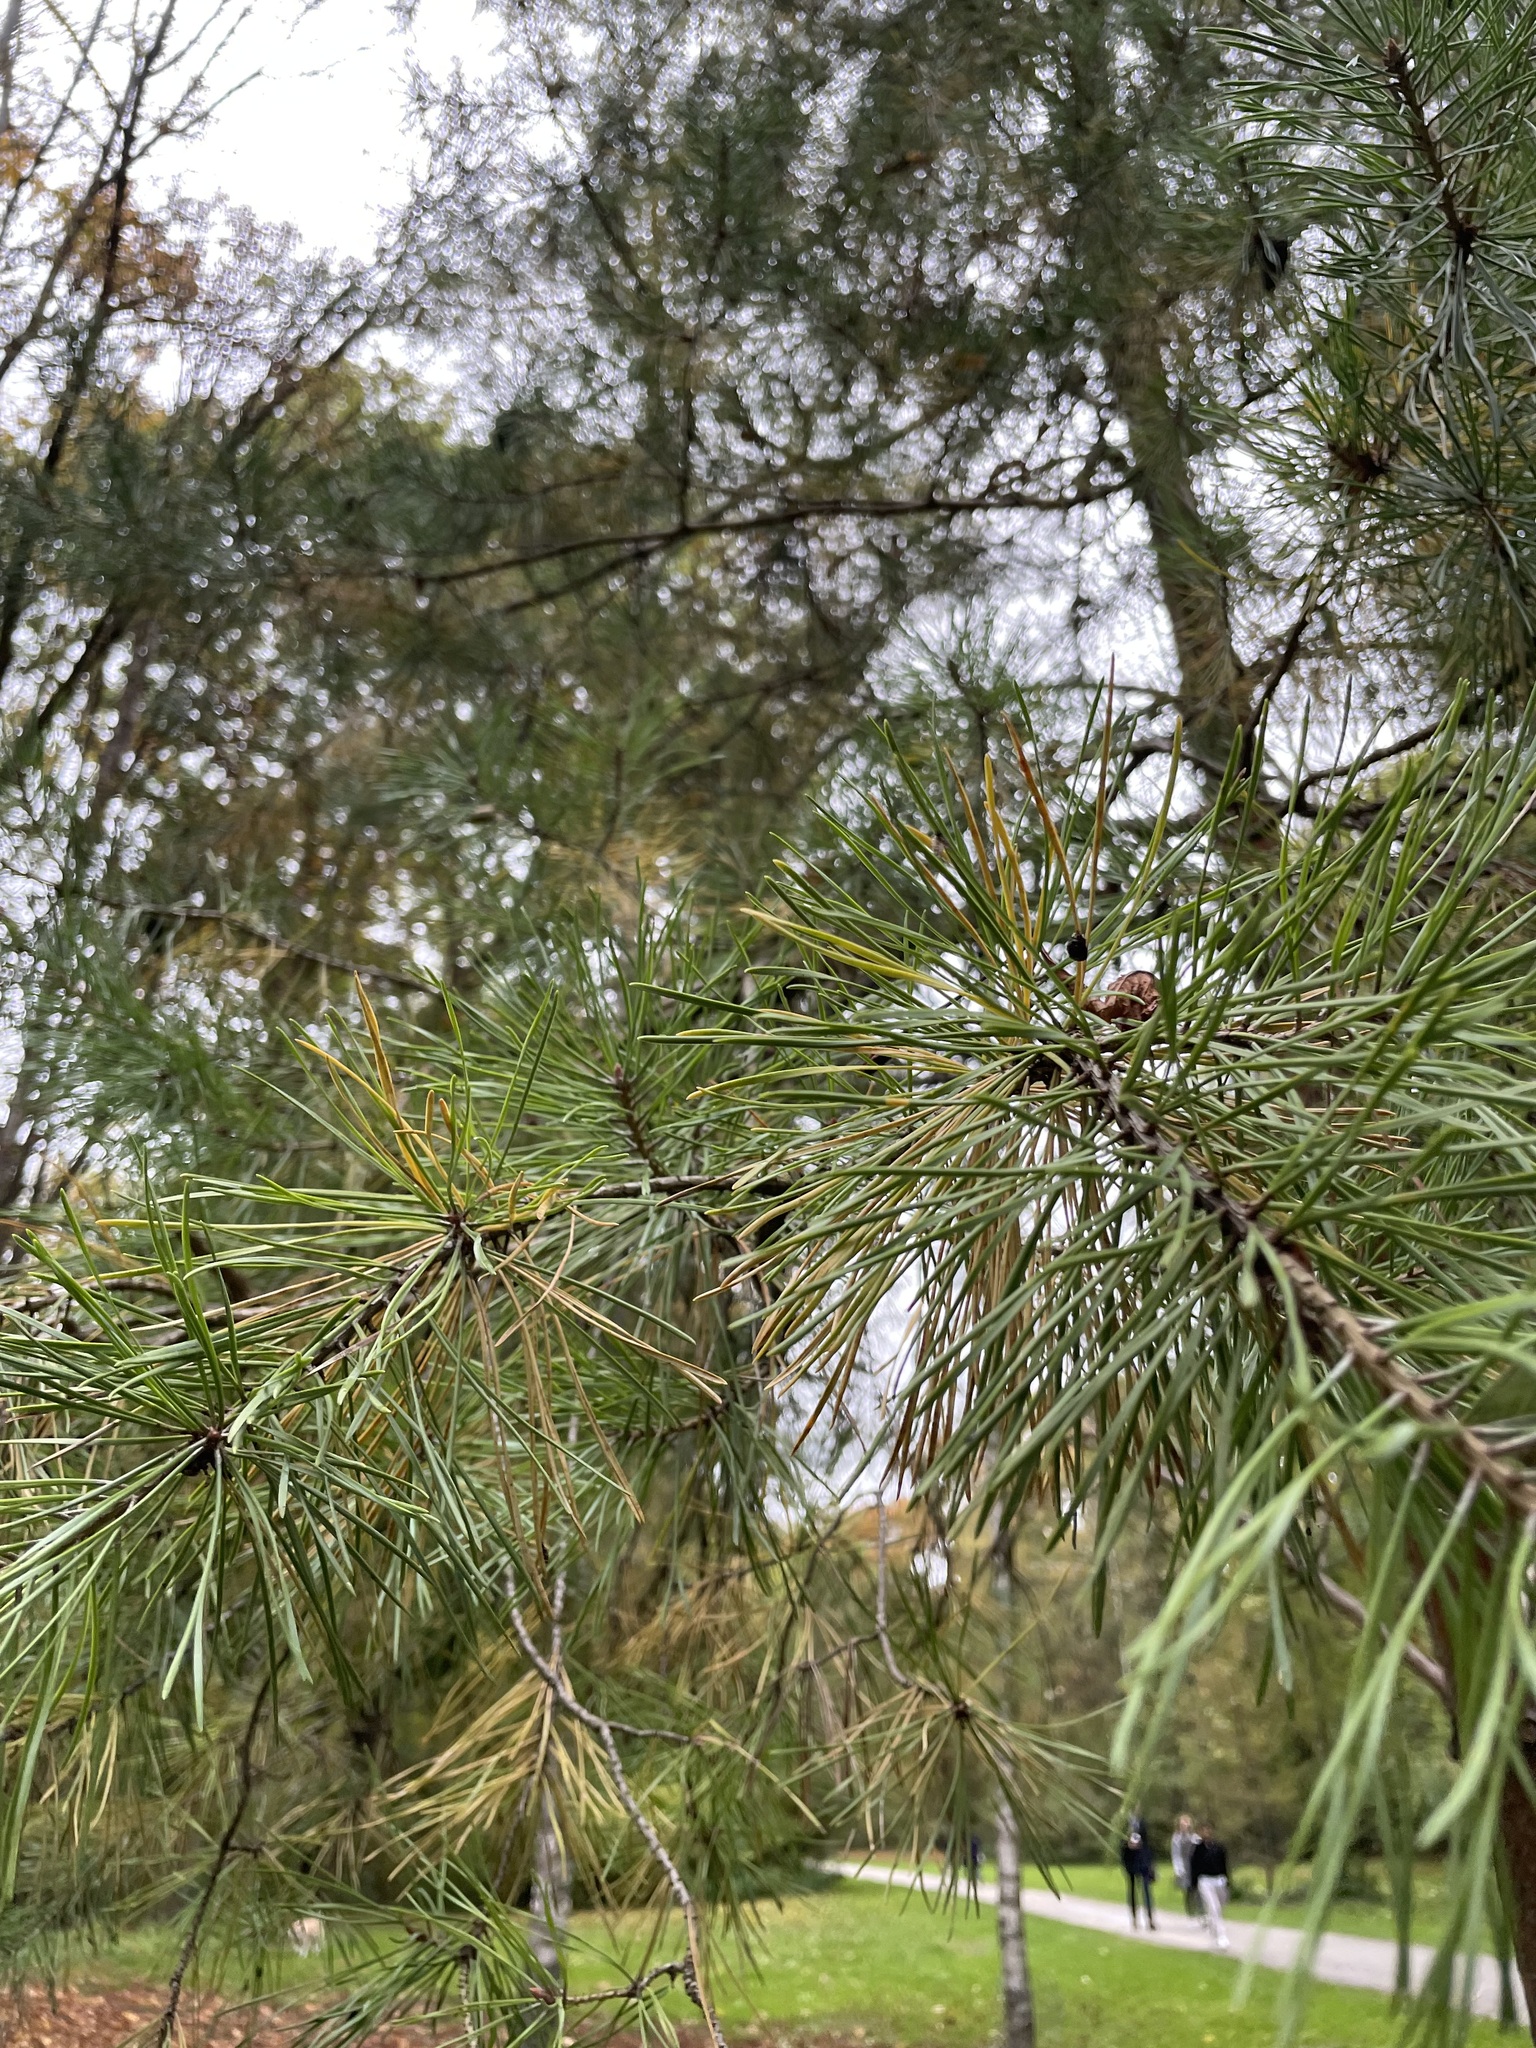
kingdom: Plantae
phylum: Tracheophyta
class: Pinopsida
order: Pinales
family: Pinaceae
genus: Pinus
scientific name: Pinus sylvestris
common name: Scots pine
